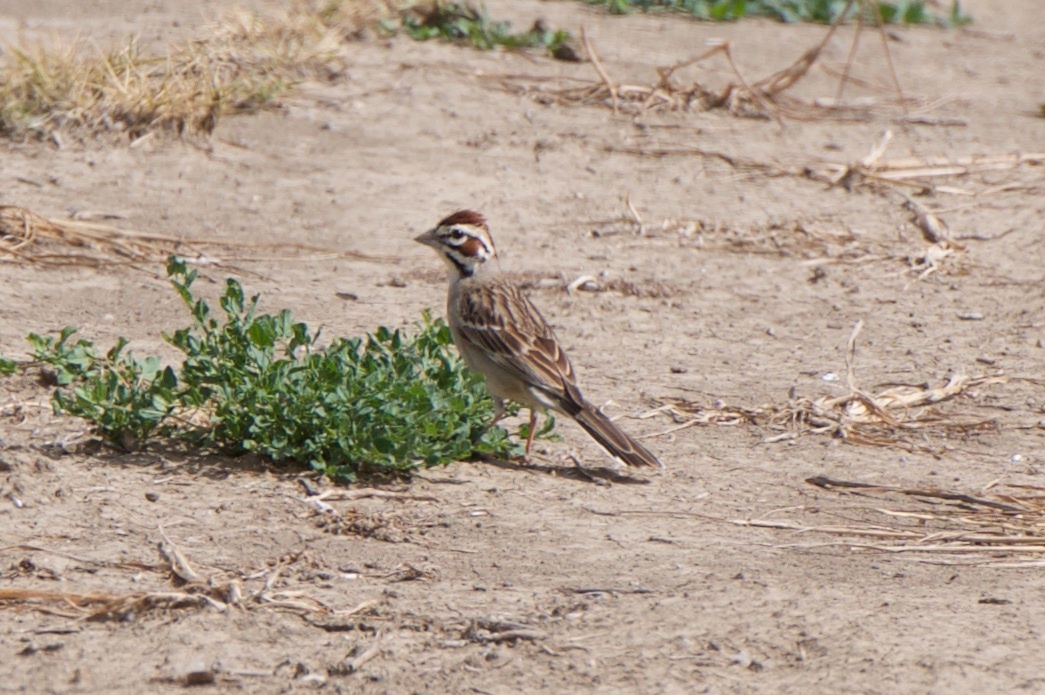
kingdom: Animalia
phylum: Chordata
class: Aves
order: Passeriformes
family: Passerellidae
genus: Chondestes
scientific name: Chondestes grammacus
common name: Lark sparrow
